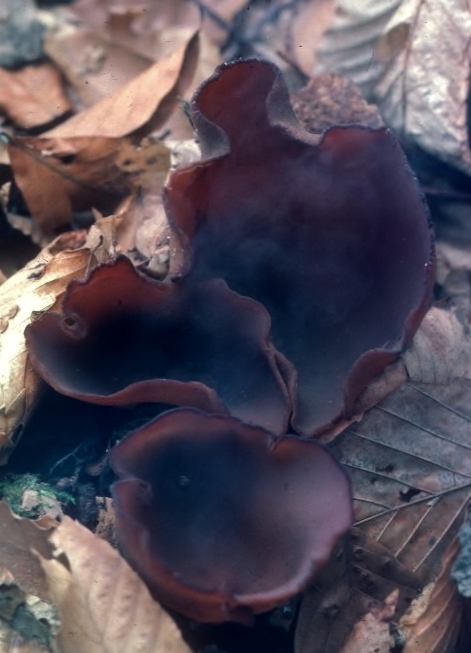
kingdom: Fungi
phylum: Ascomycota
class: Pezizomycetes
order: Pezizales
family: Pezizaceae
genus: Phylloscypha
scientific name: Phylloscypha phyllogena
